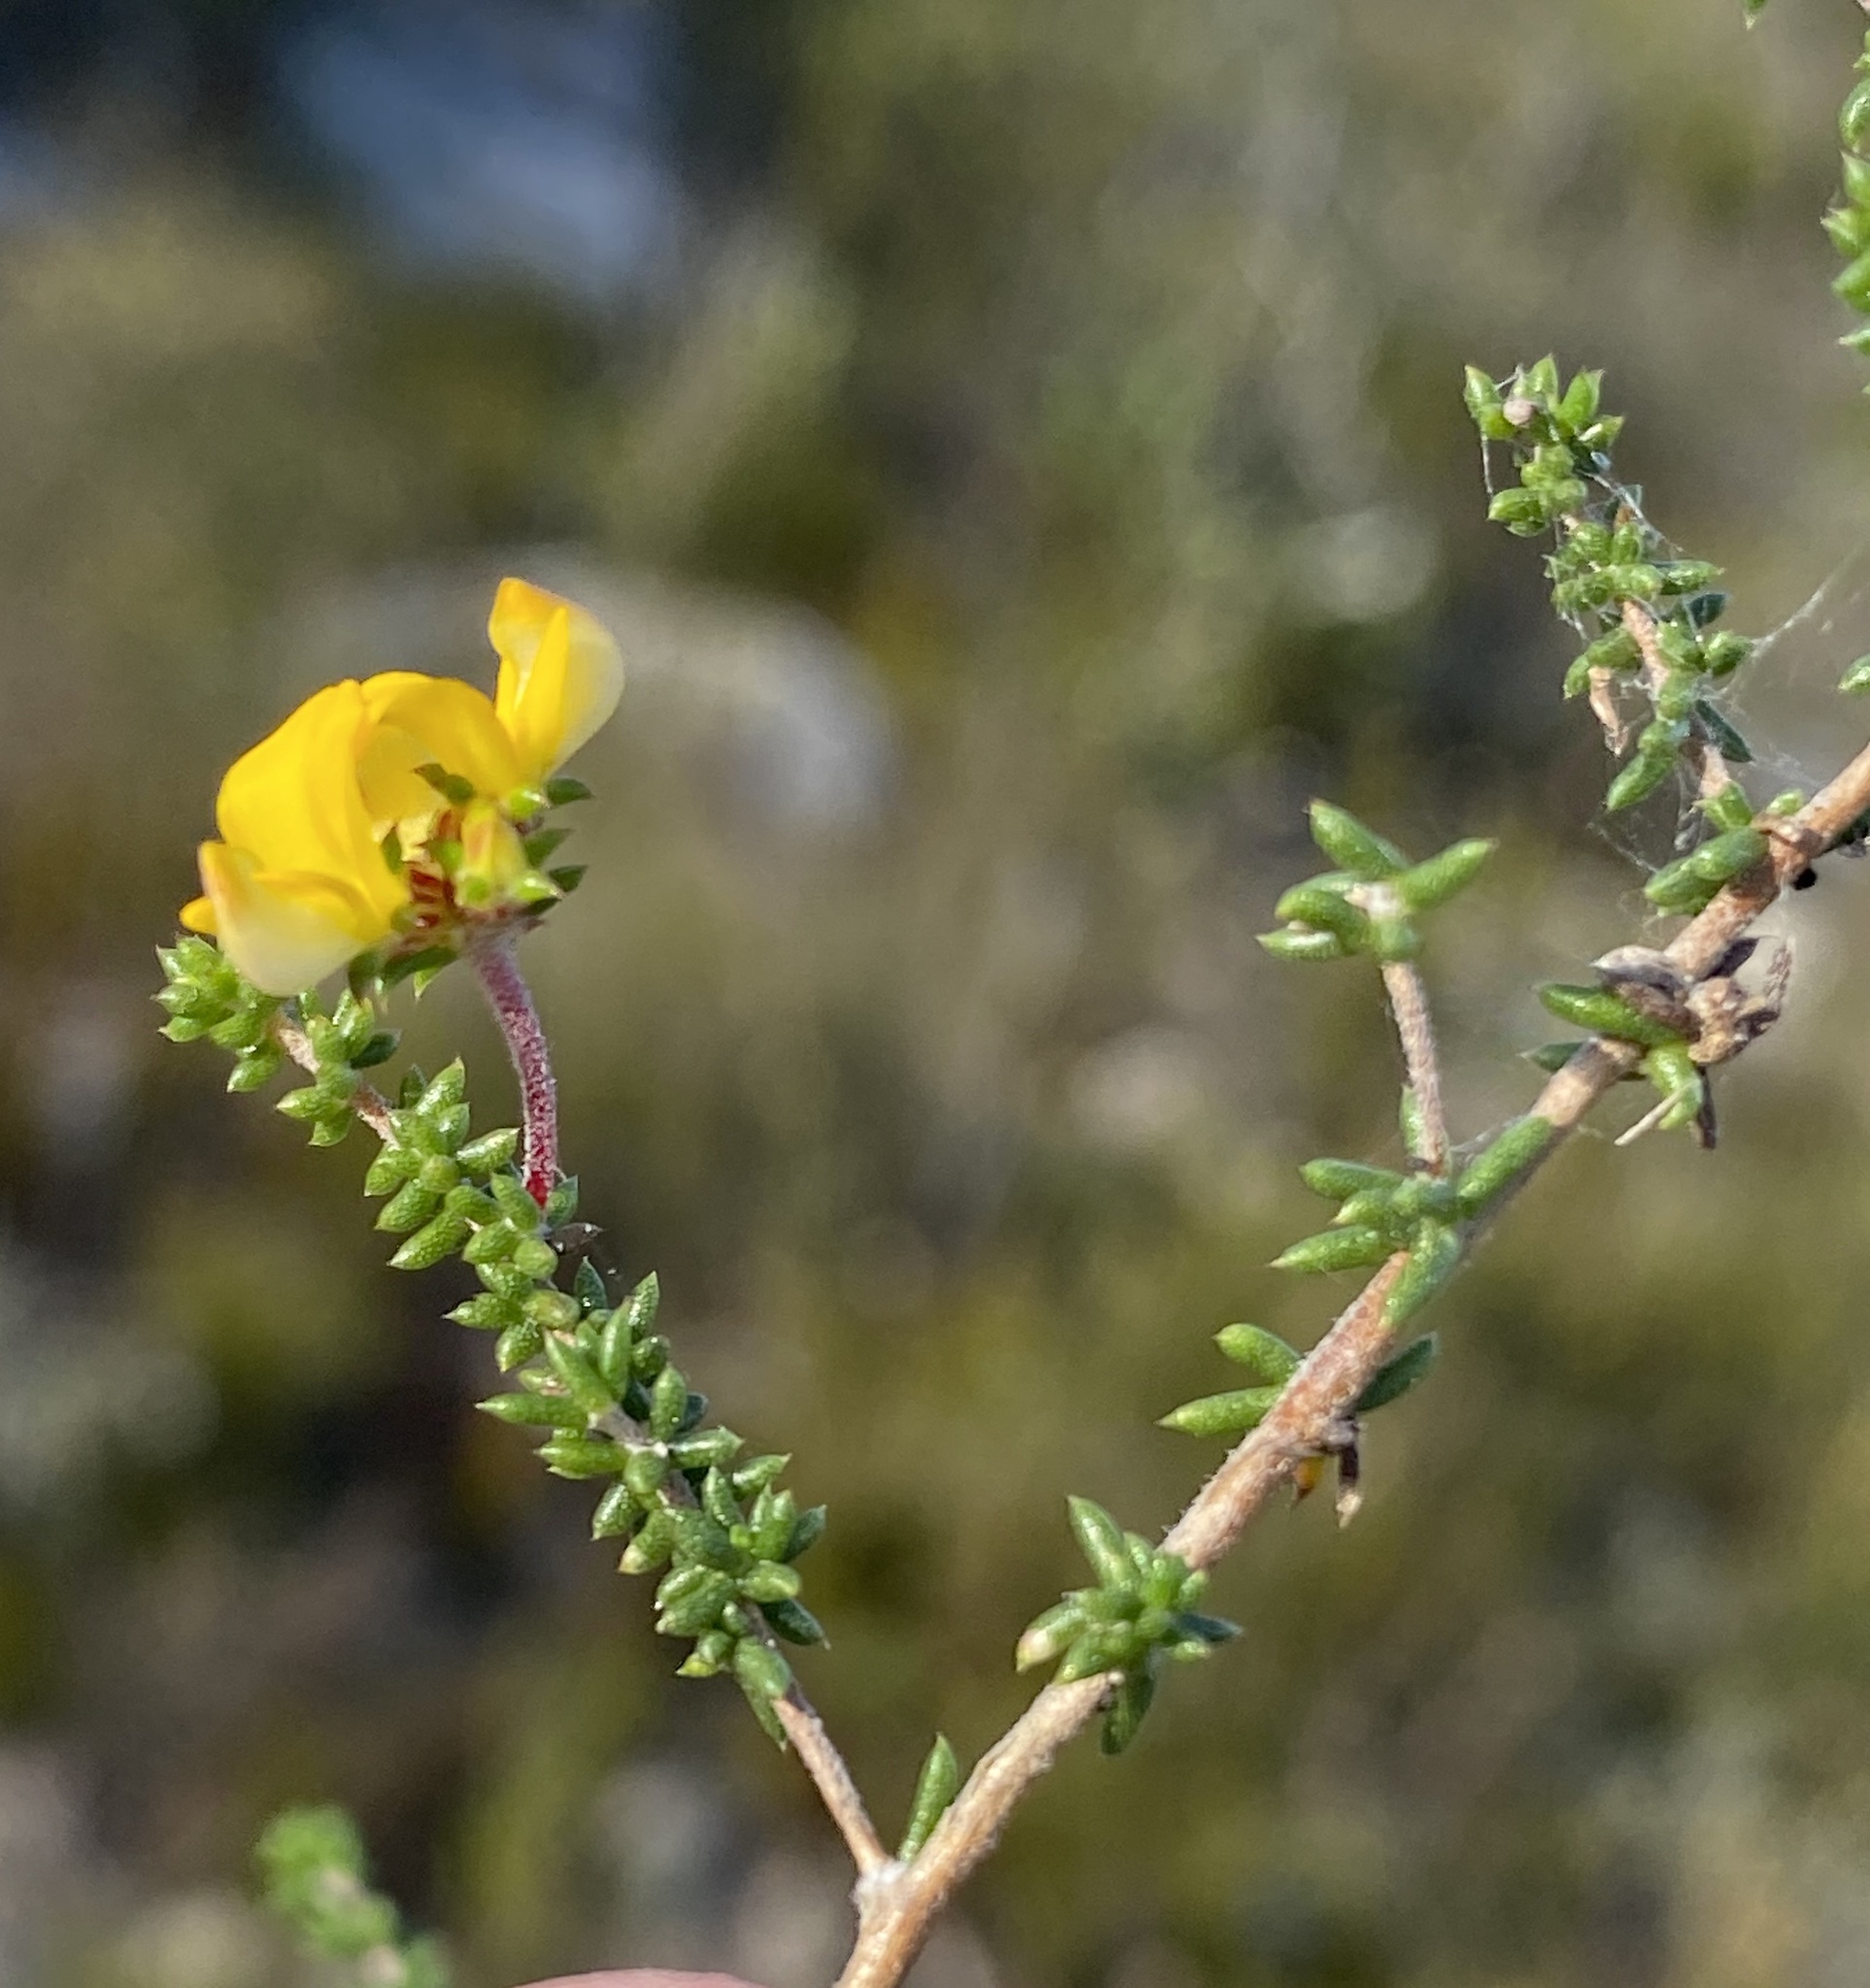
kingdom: Plantae
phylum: Tracheophyta
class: Magnoliopsida
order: Fabales
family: Fabaceae
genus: Aspalathus
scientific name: Aspalathus crassisepala
